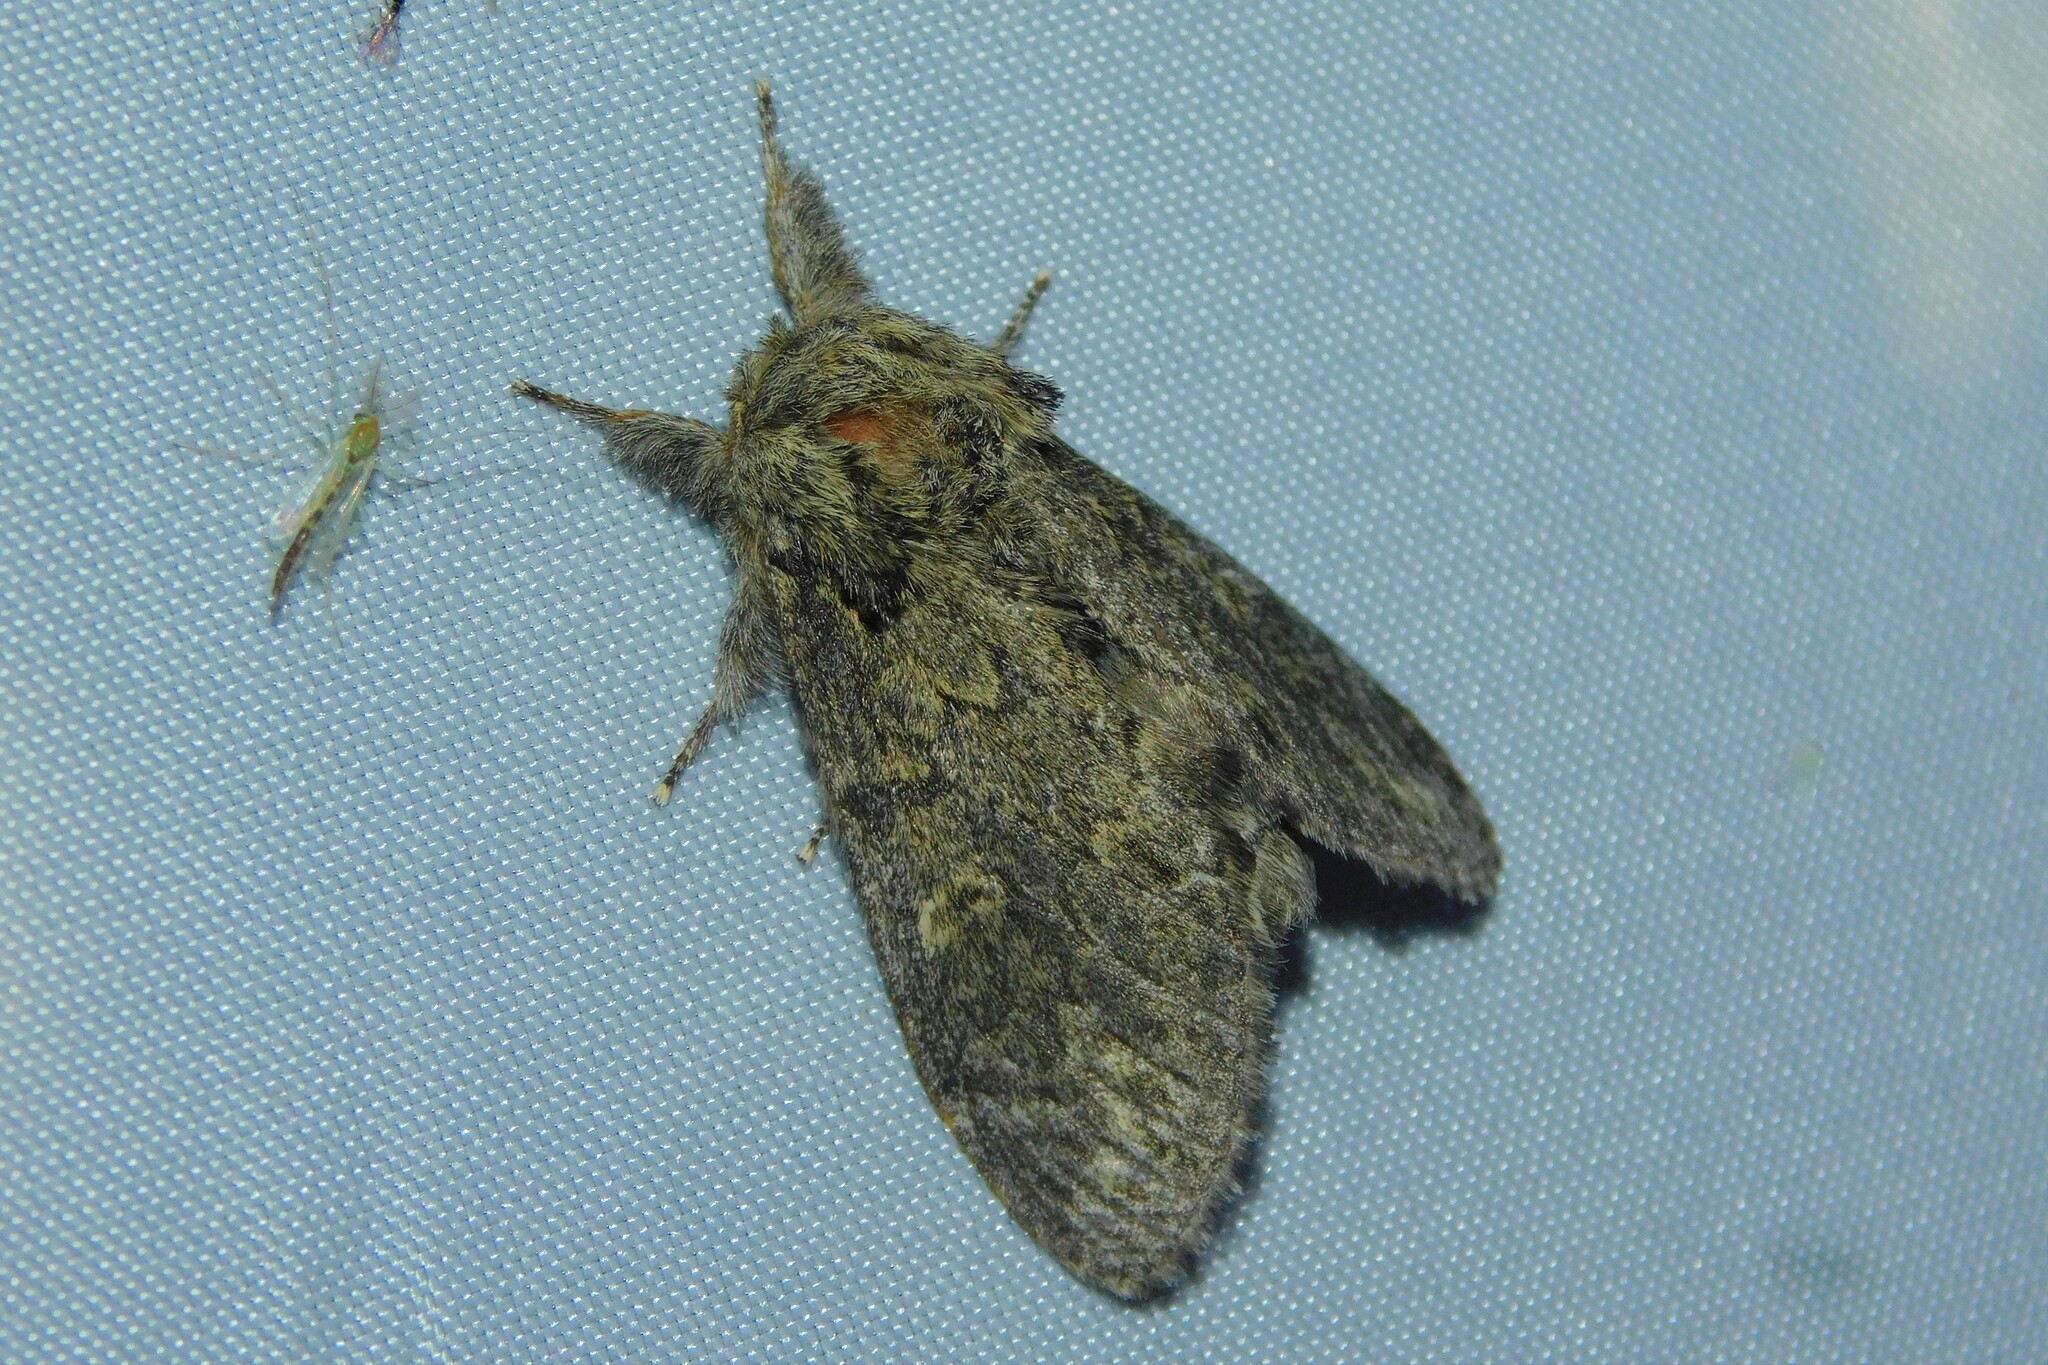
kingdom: Animalia
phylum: Arthropoda
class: Insecta
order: Lepidoptera
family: Notodontidae
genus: Notodonta
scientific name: Notodonta torva
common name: Large dark prominent
